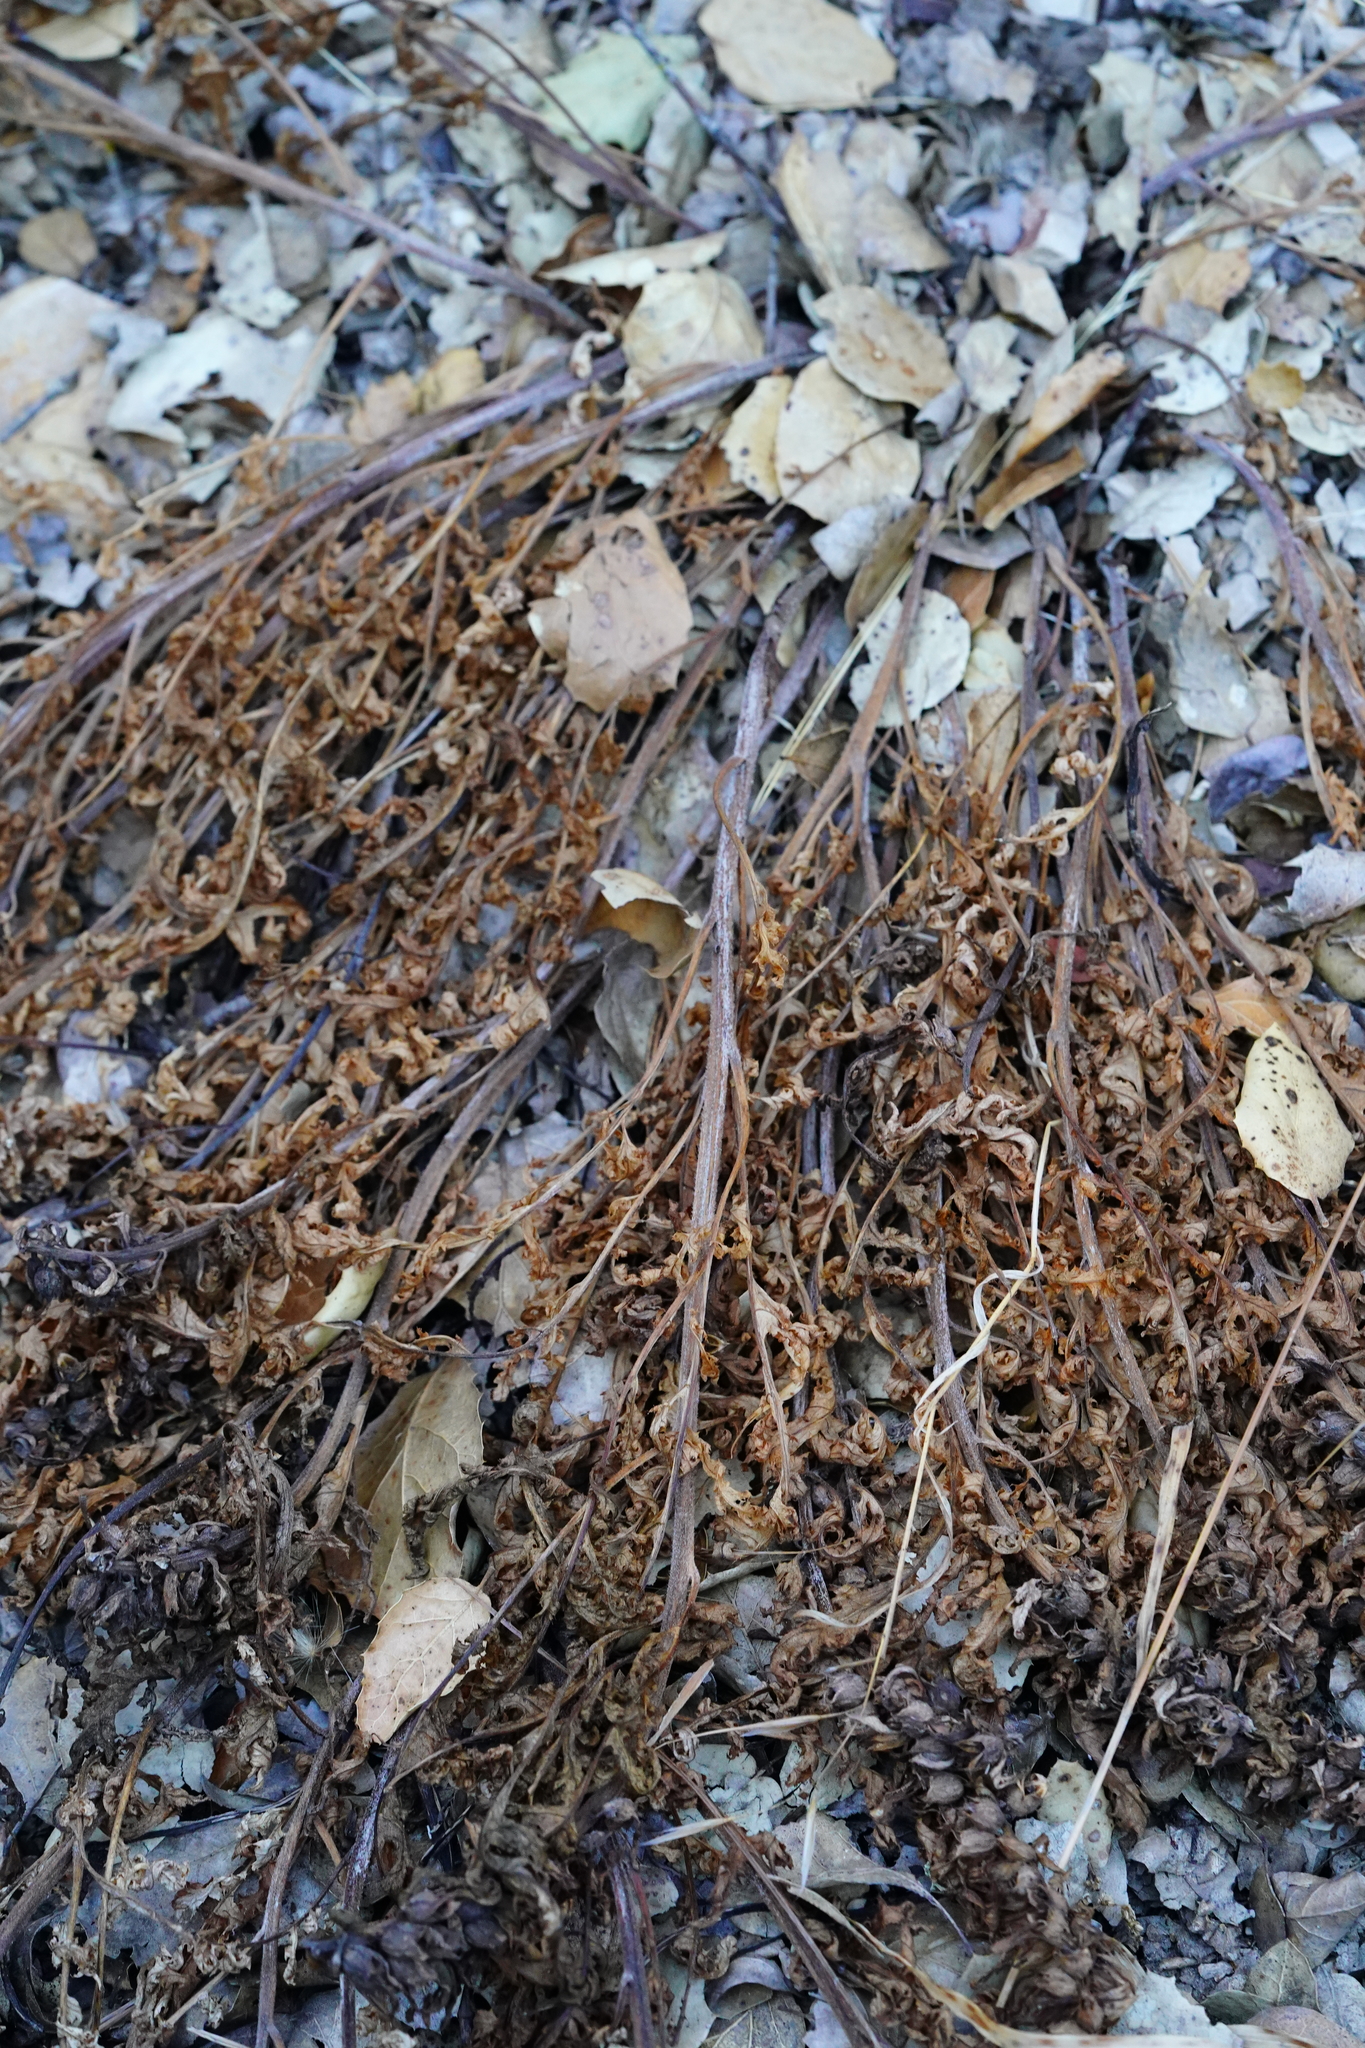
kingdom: Plantae
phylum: Tracheophyta
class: Magnoliopsida
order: Lamiales
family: Orobanchaceae
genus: Pedicularis
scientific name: Pedicularis densiflora
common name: Indian warrior
